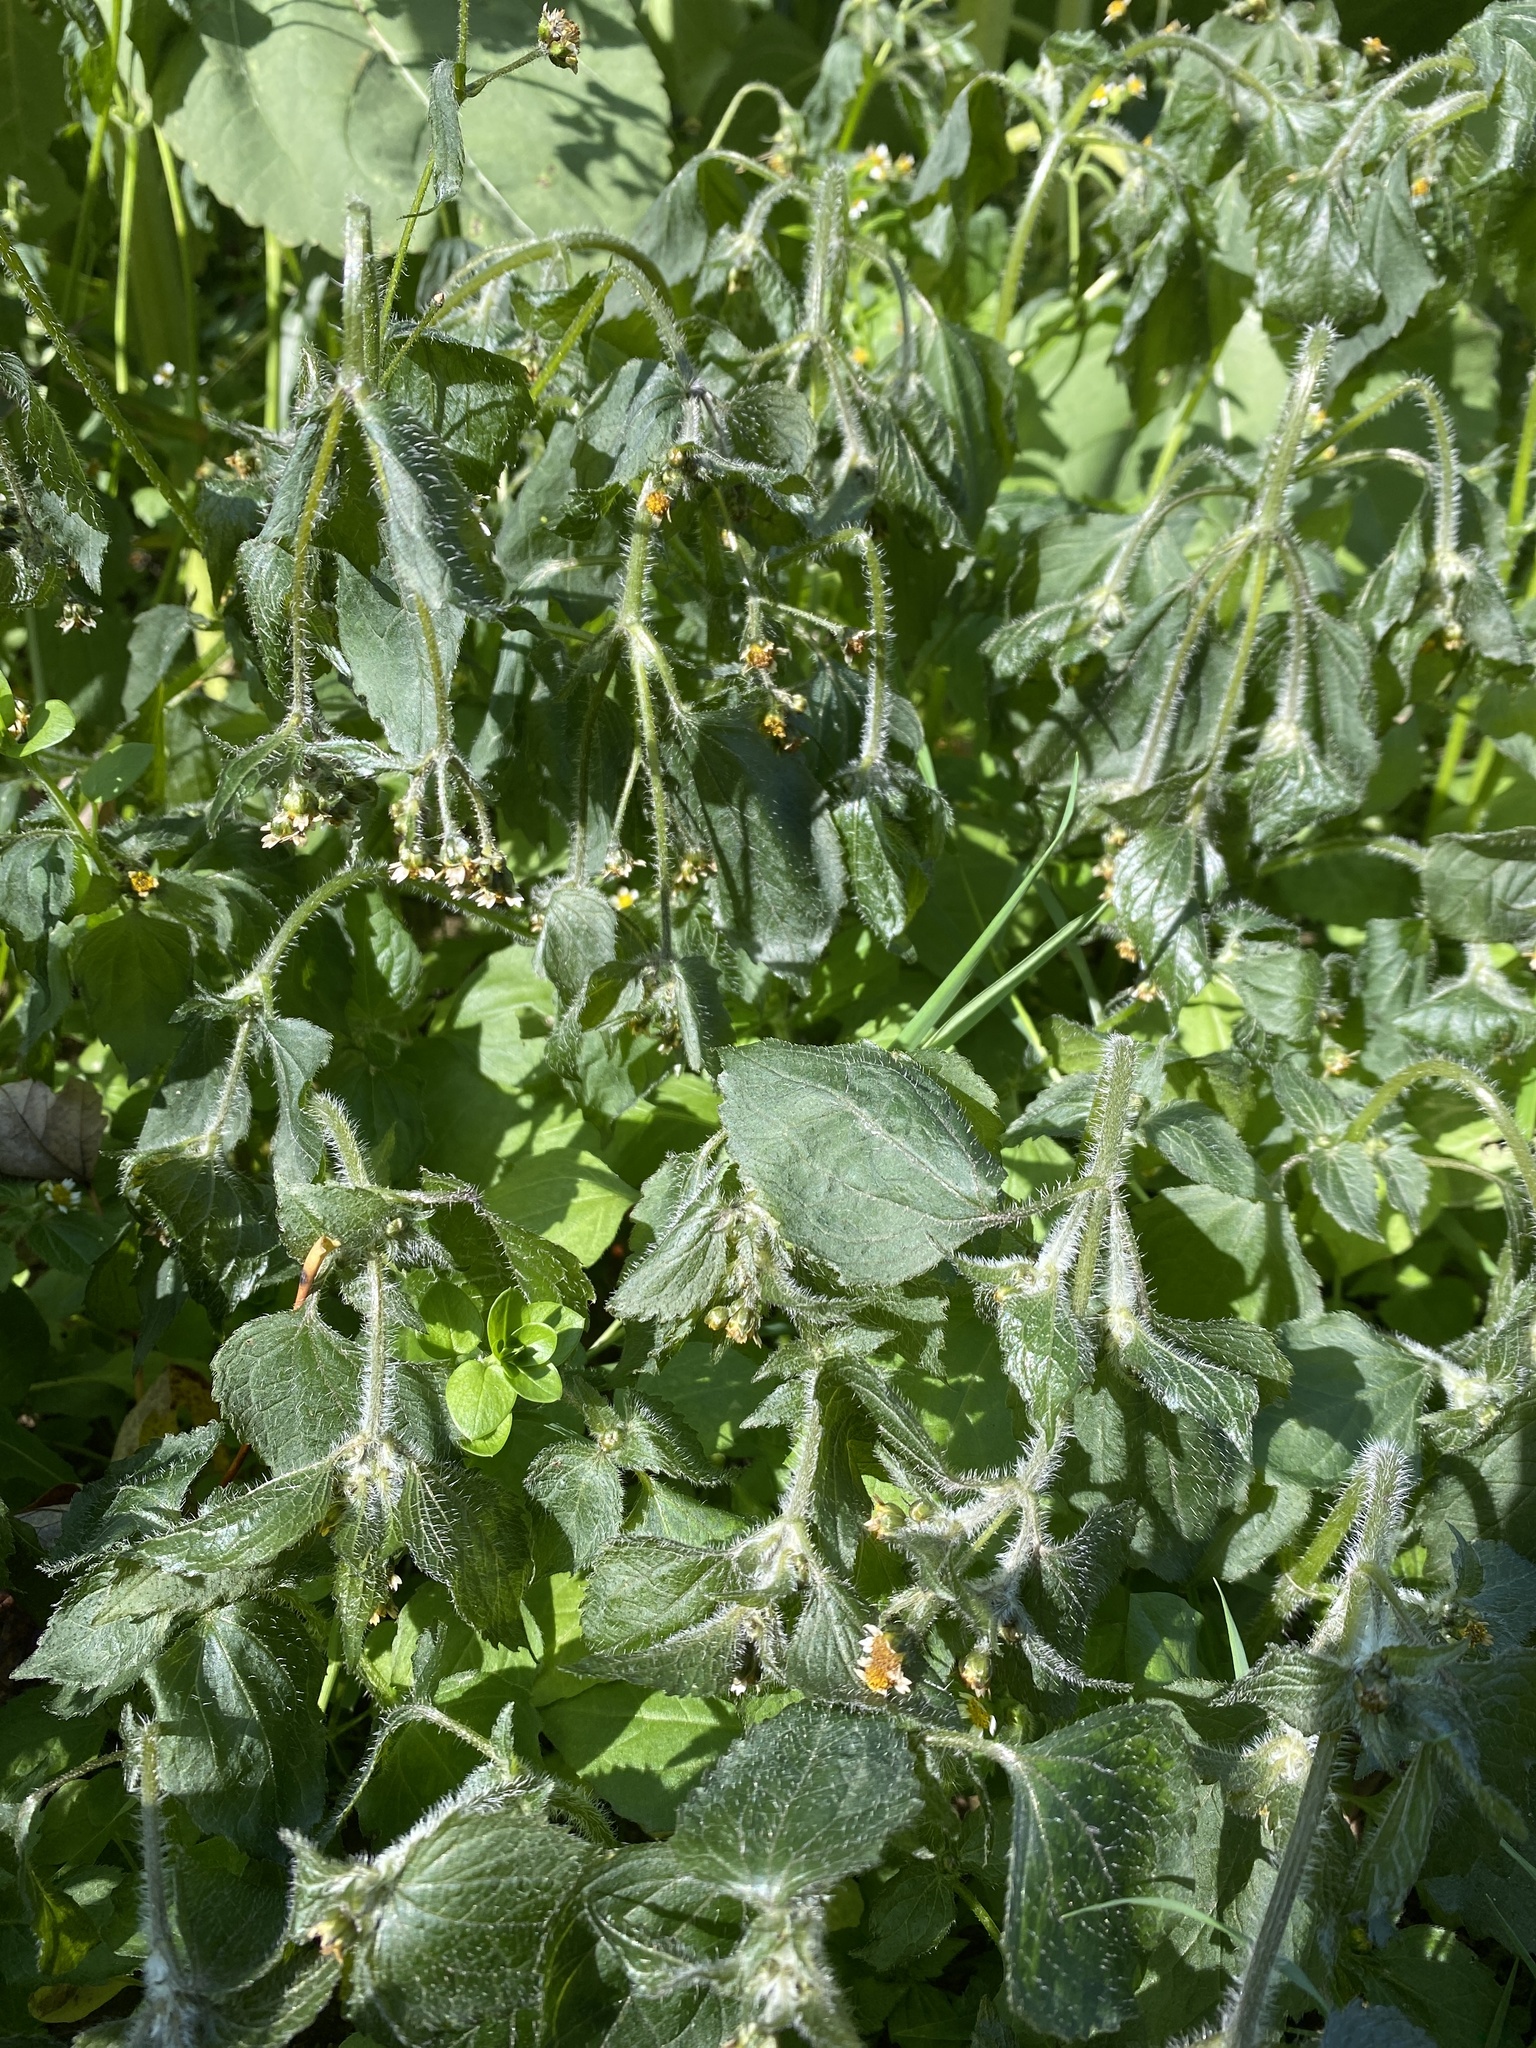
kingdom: Plantae
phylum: Tracheophyta
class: Magnoliopsida
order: Asterales
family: Asteraceae
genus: Galinsoga
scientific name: Galinsoga quadriradiata
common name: Shaggy soldier
